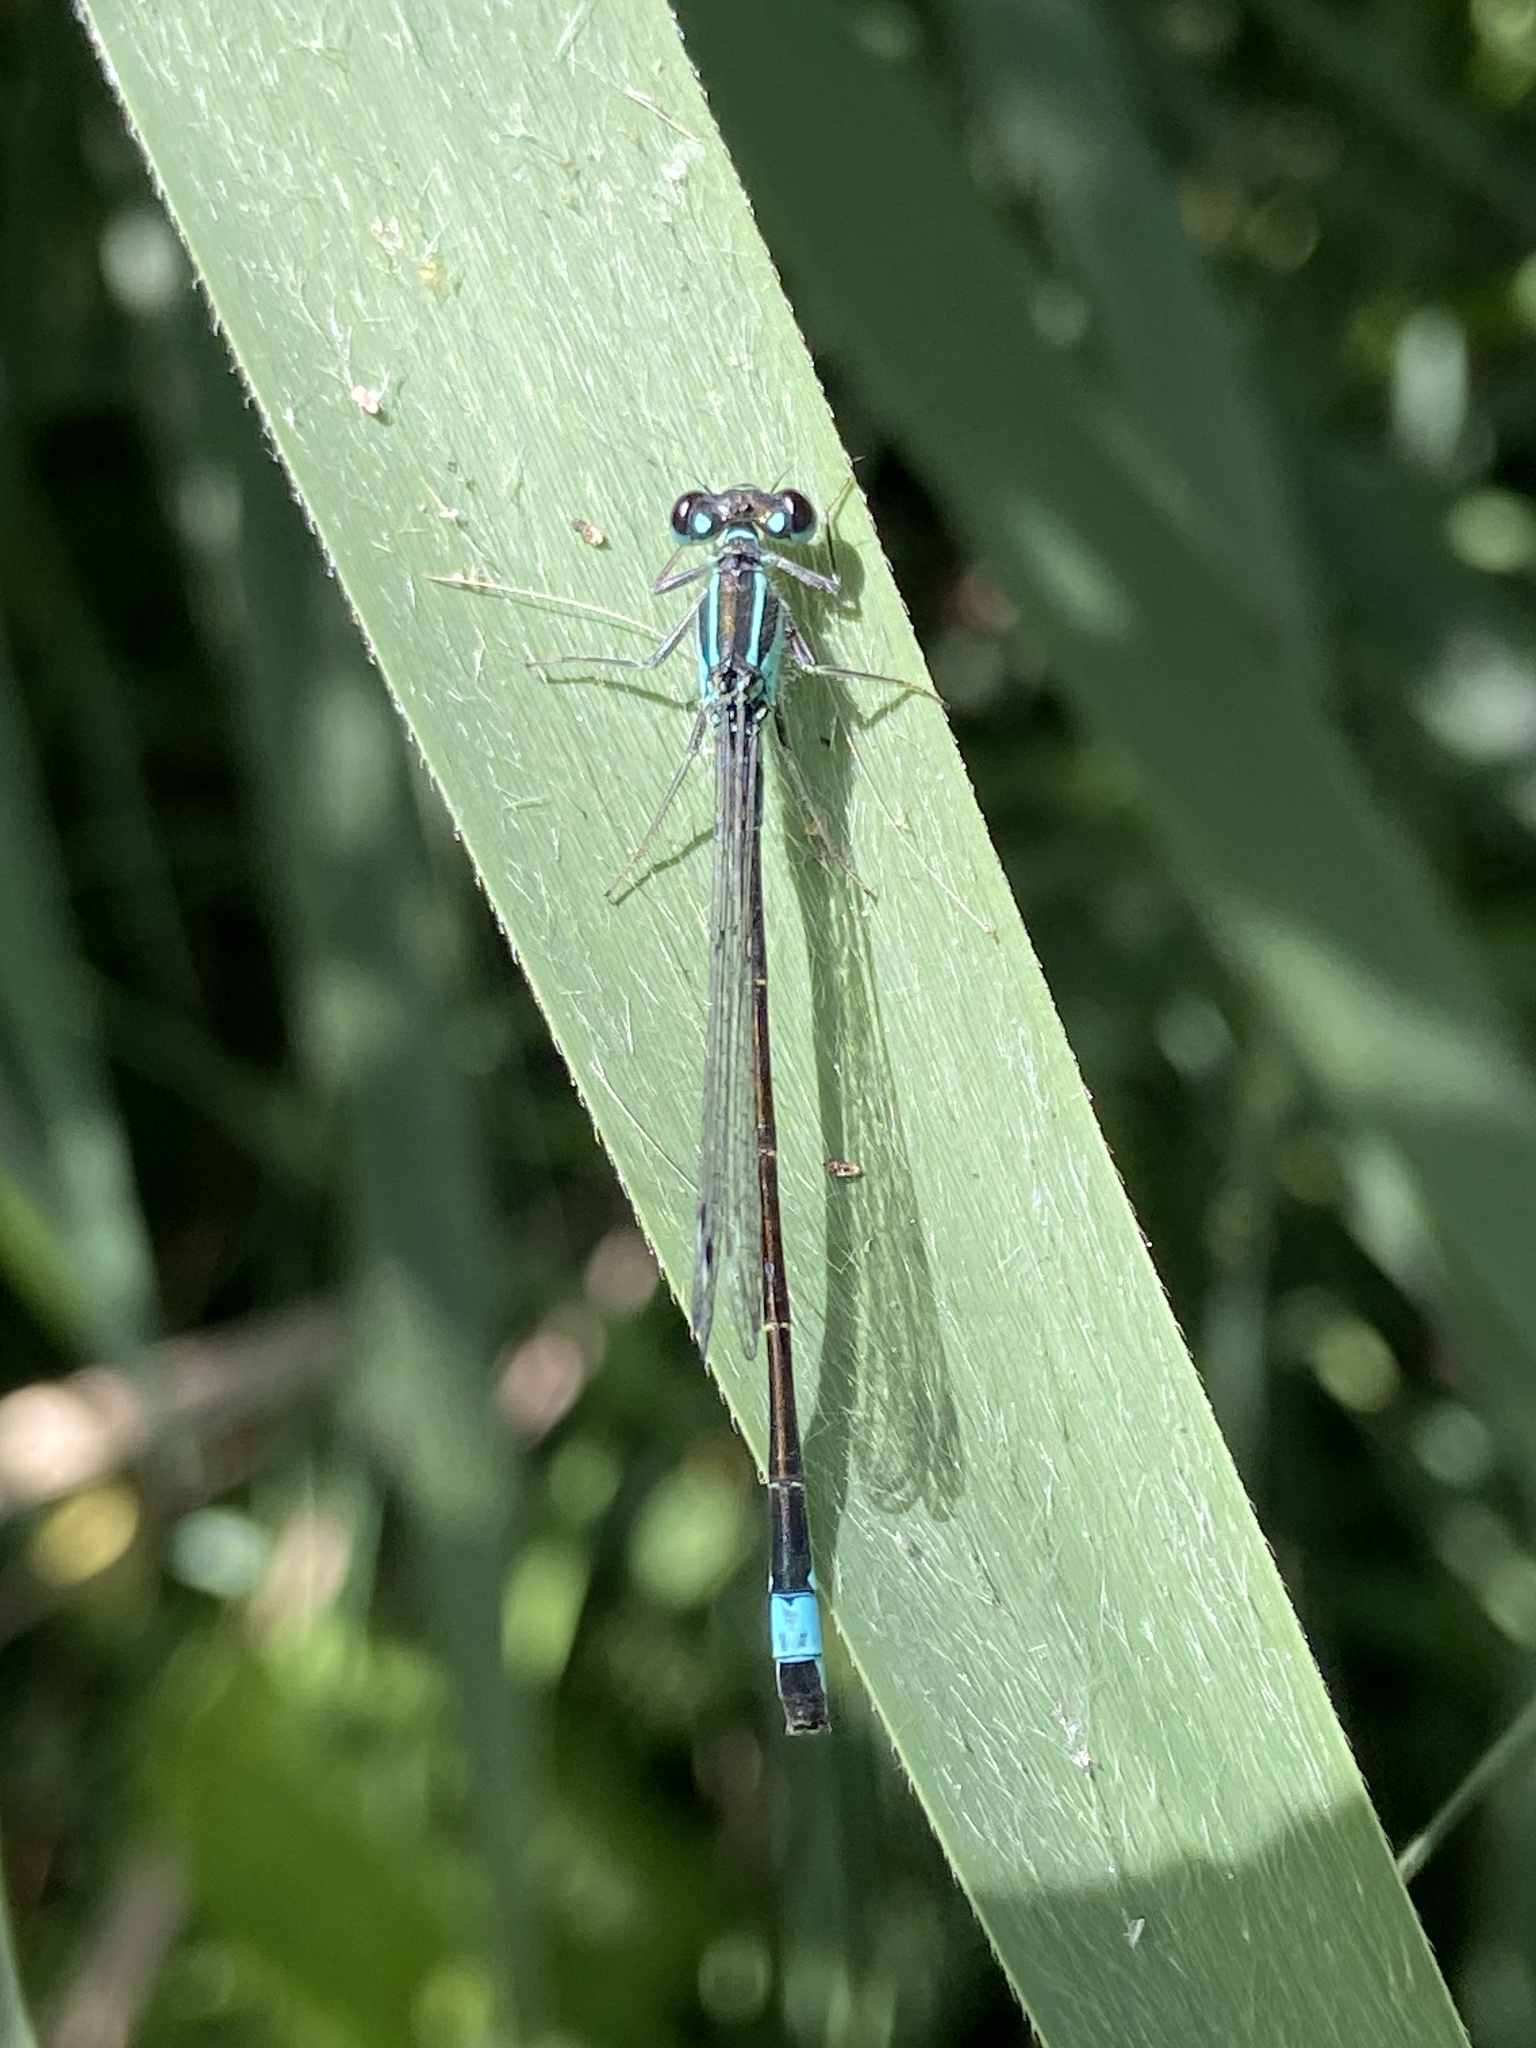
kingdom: Animalia
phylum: Arthropoda
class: Insecta
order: Odonata
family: Coenagrionidae
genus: Ischnura
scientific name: Ischnura elegans
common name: Blue-tailed damselfly
